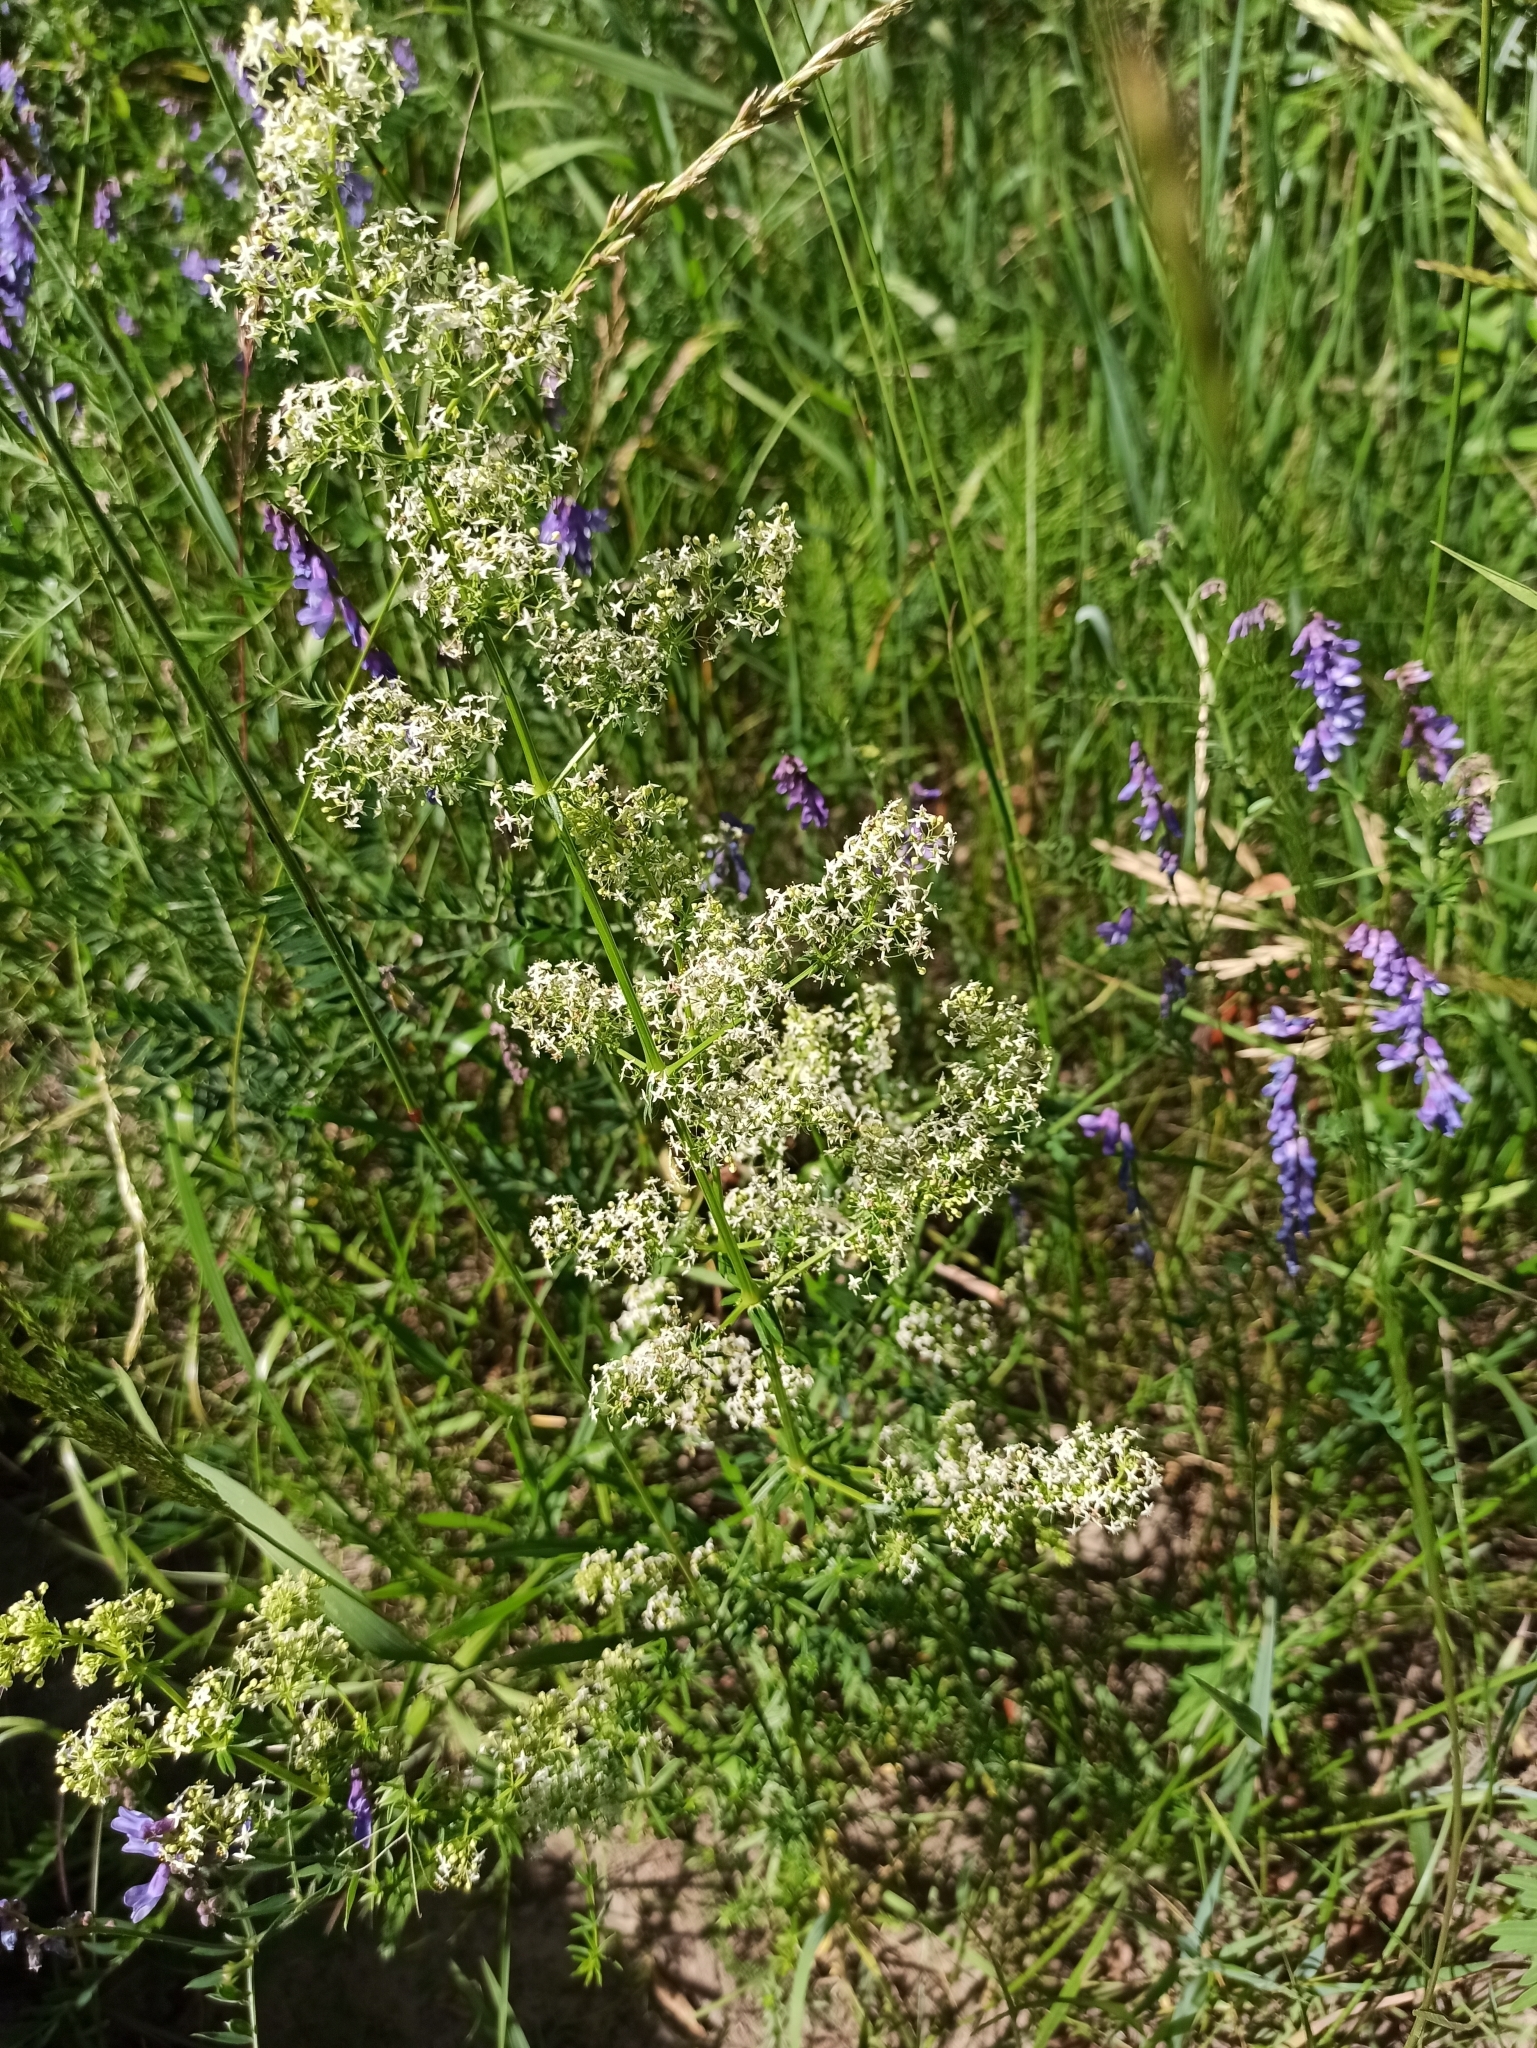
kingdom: Plantae
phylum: Tracheophyta
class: Magnoliopsida
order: Gentianales
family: Rubiaceae
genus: Galium
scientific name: Galium mollugo
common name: Hedge bedstraw
